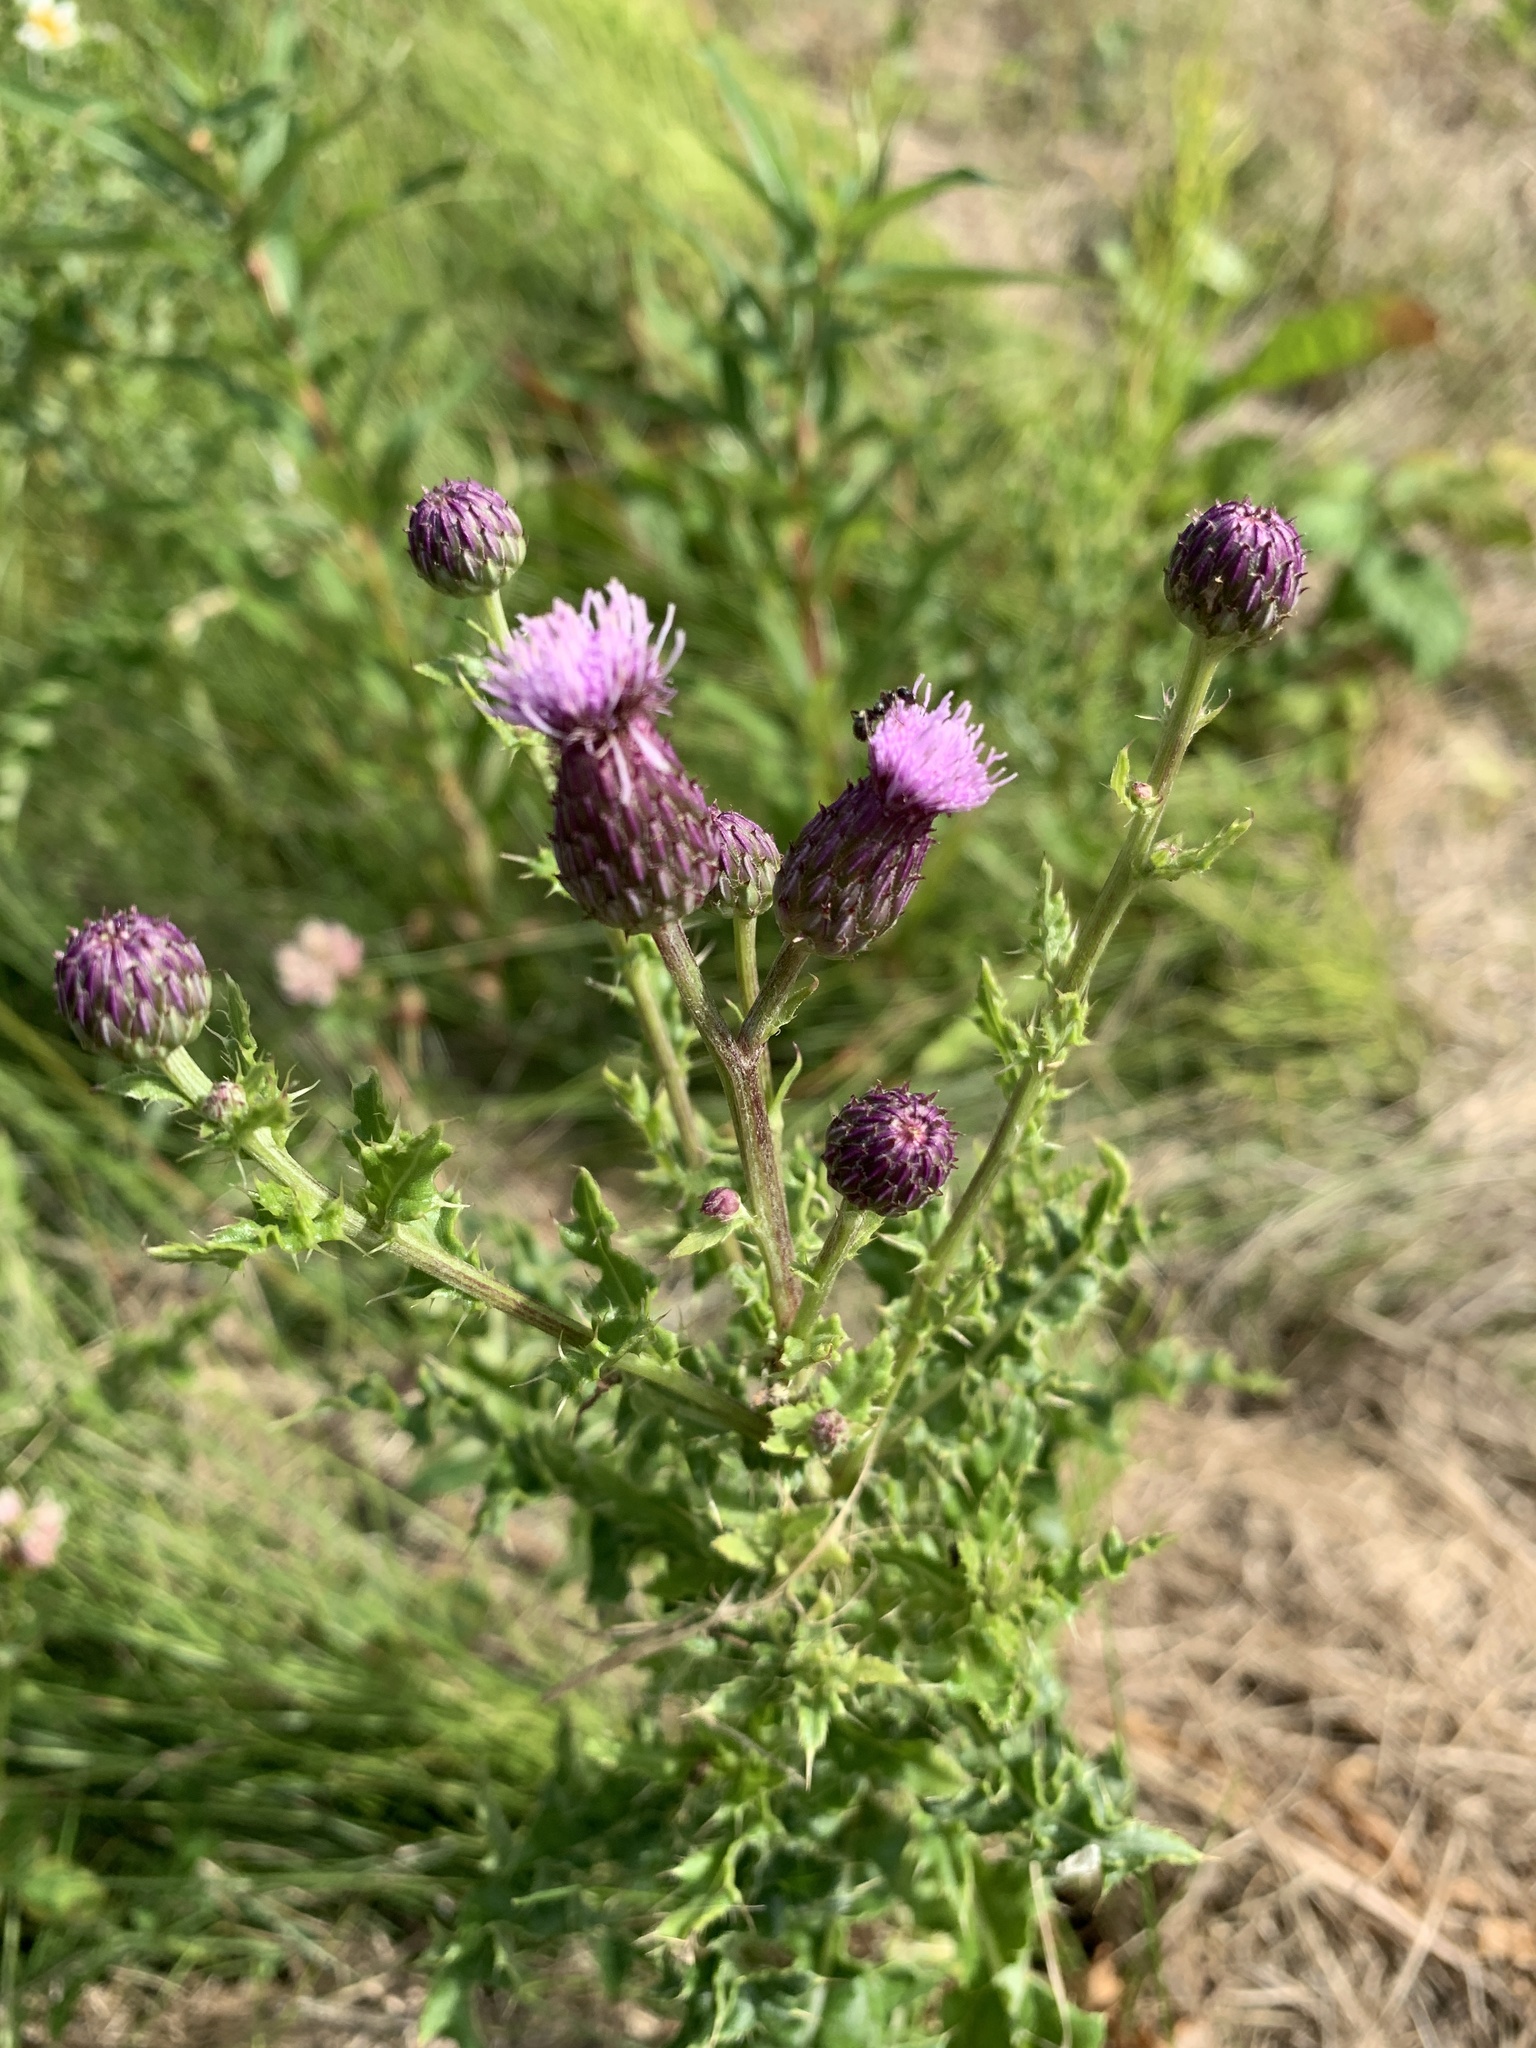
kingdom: Plantae
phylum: Tracheophyta
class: Magnoliopsida
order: Asterales
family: Asteraceae
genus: Cirsium
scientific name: Cirsium arvense
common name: Creeping thistle
